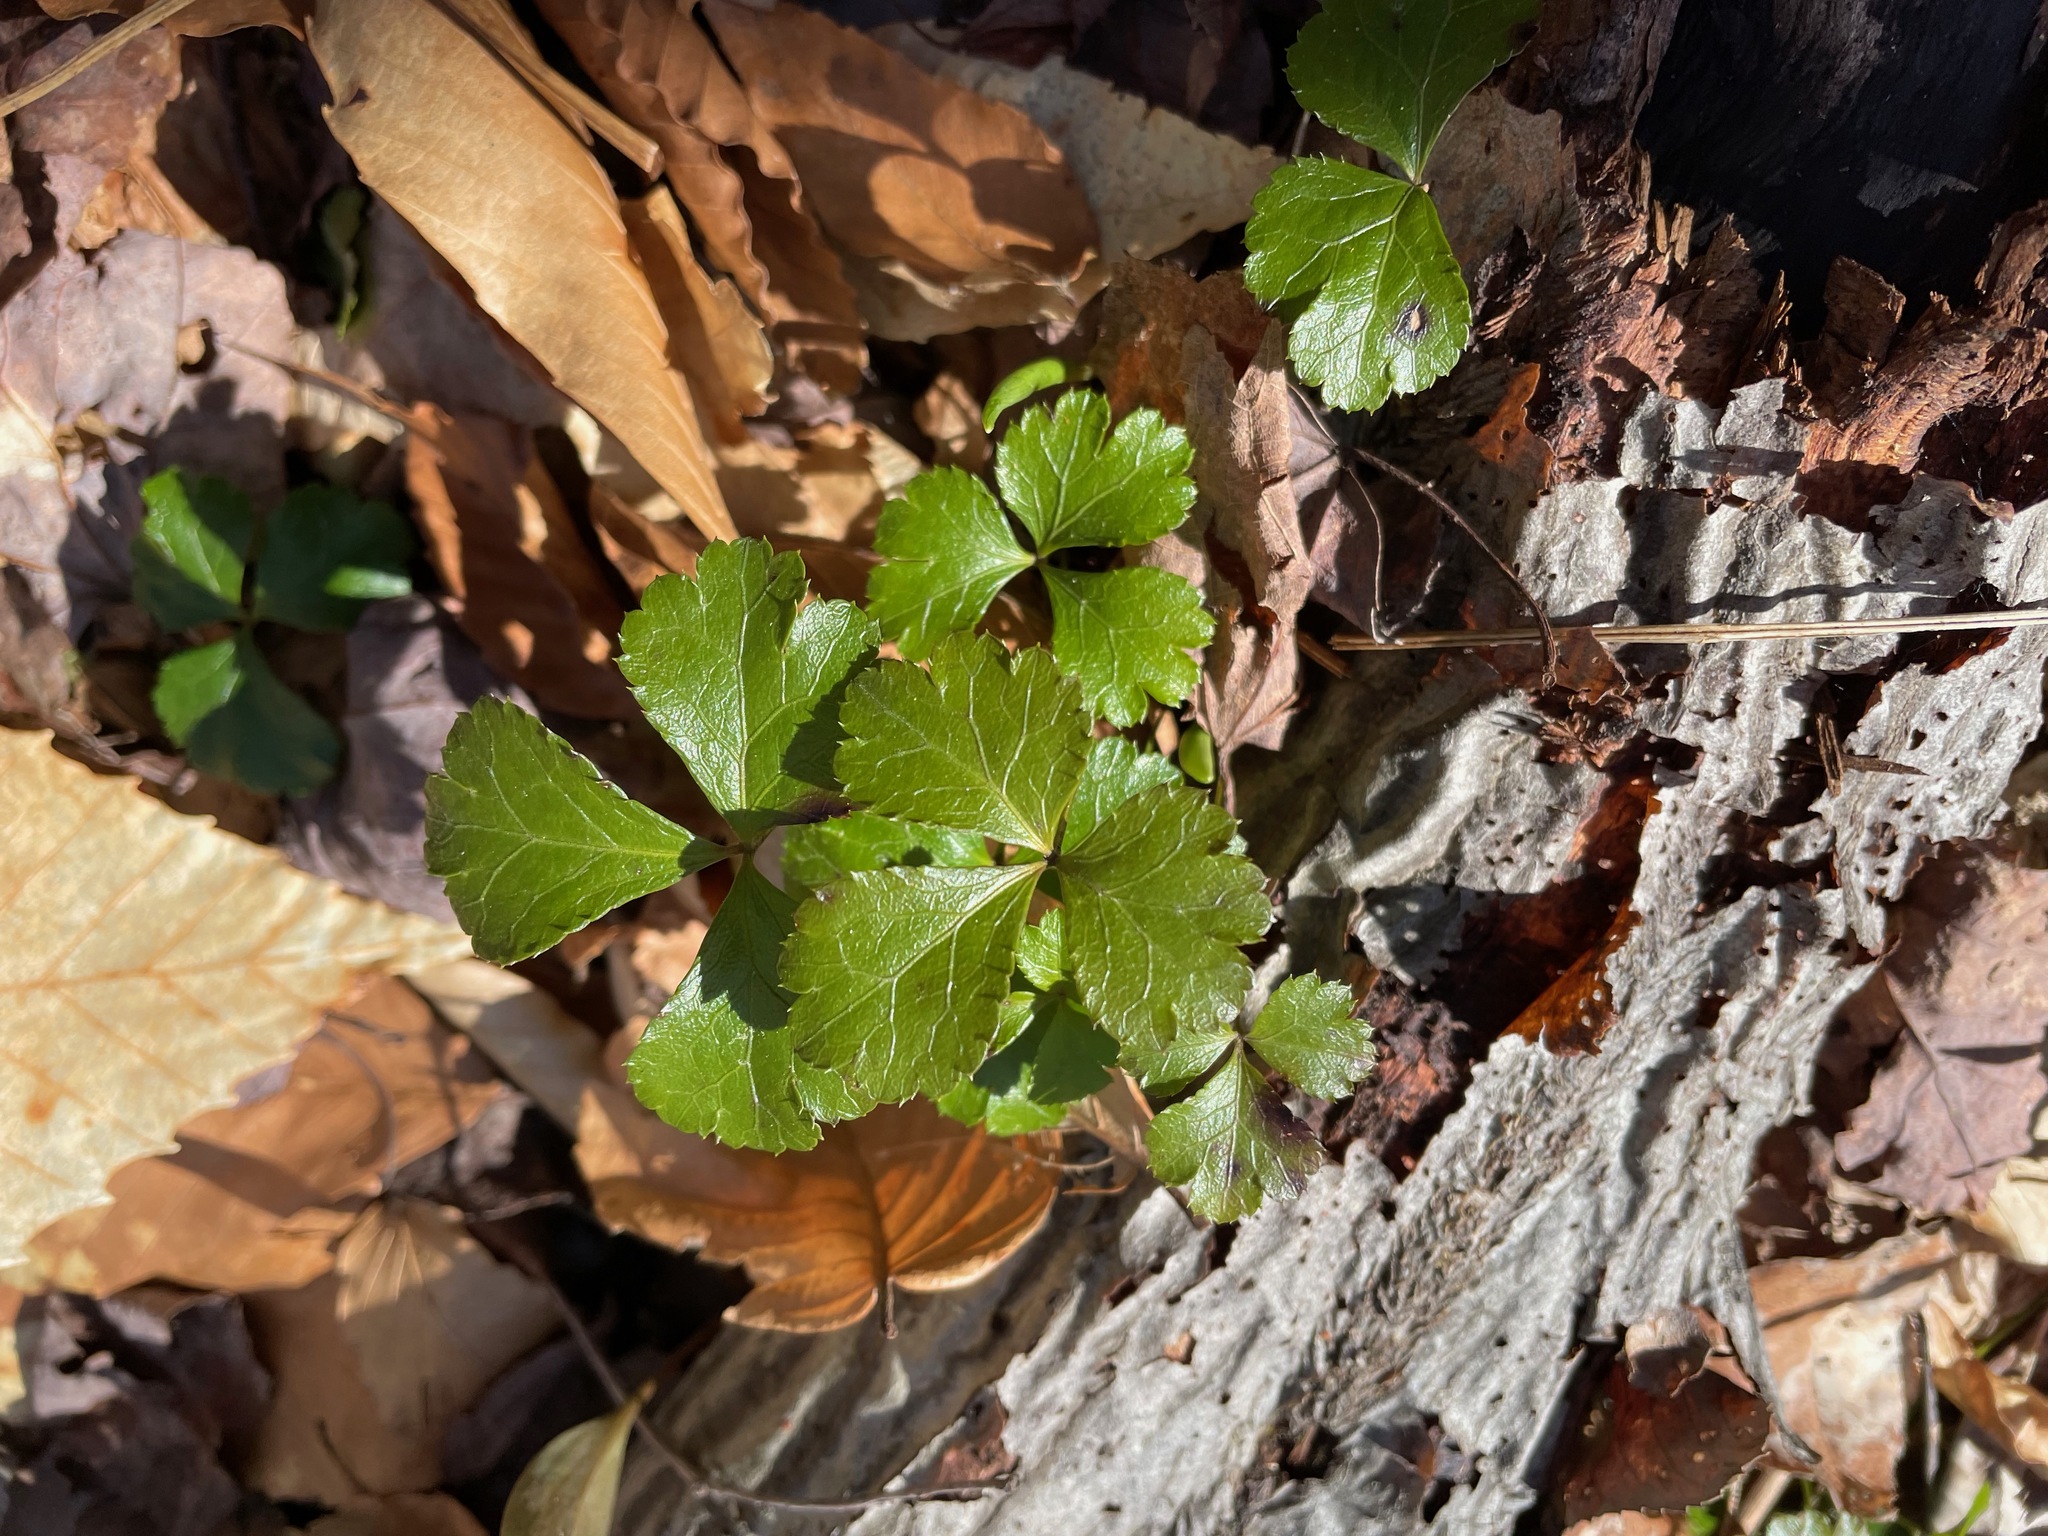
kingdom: Plantae
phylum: Tracheophyta
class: Magnoliopsida
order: Ranunculales
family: Ranunculaceae
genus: Coptis
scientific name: Coptis trifolia
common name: Canker-root
